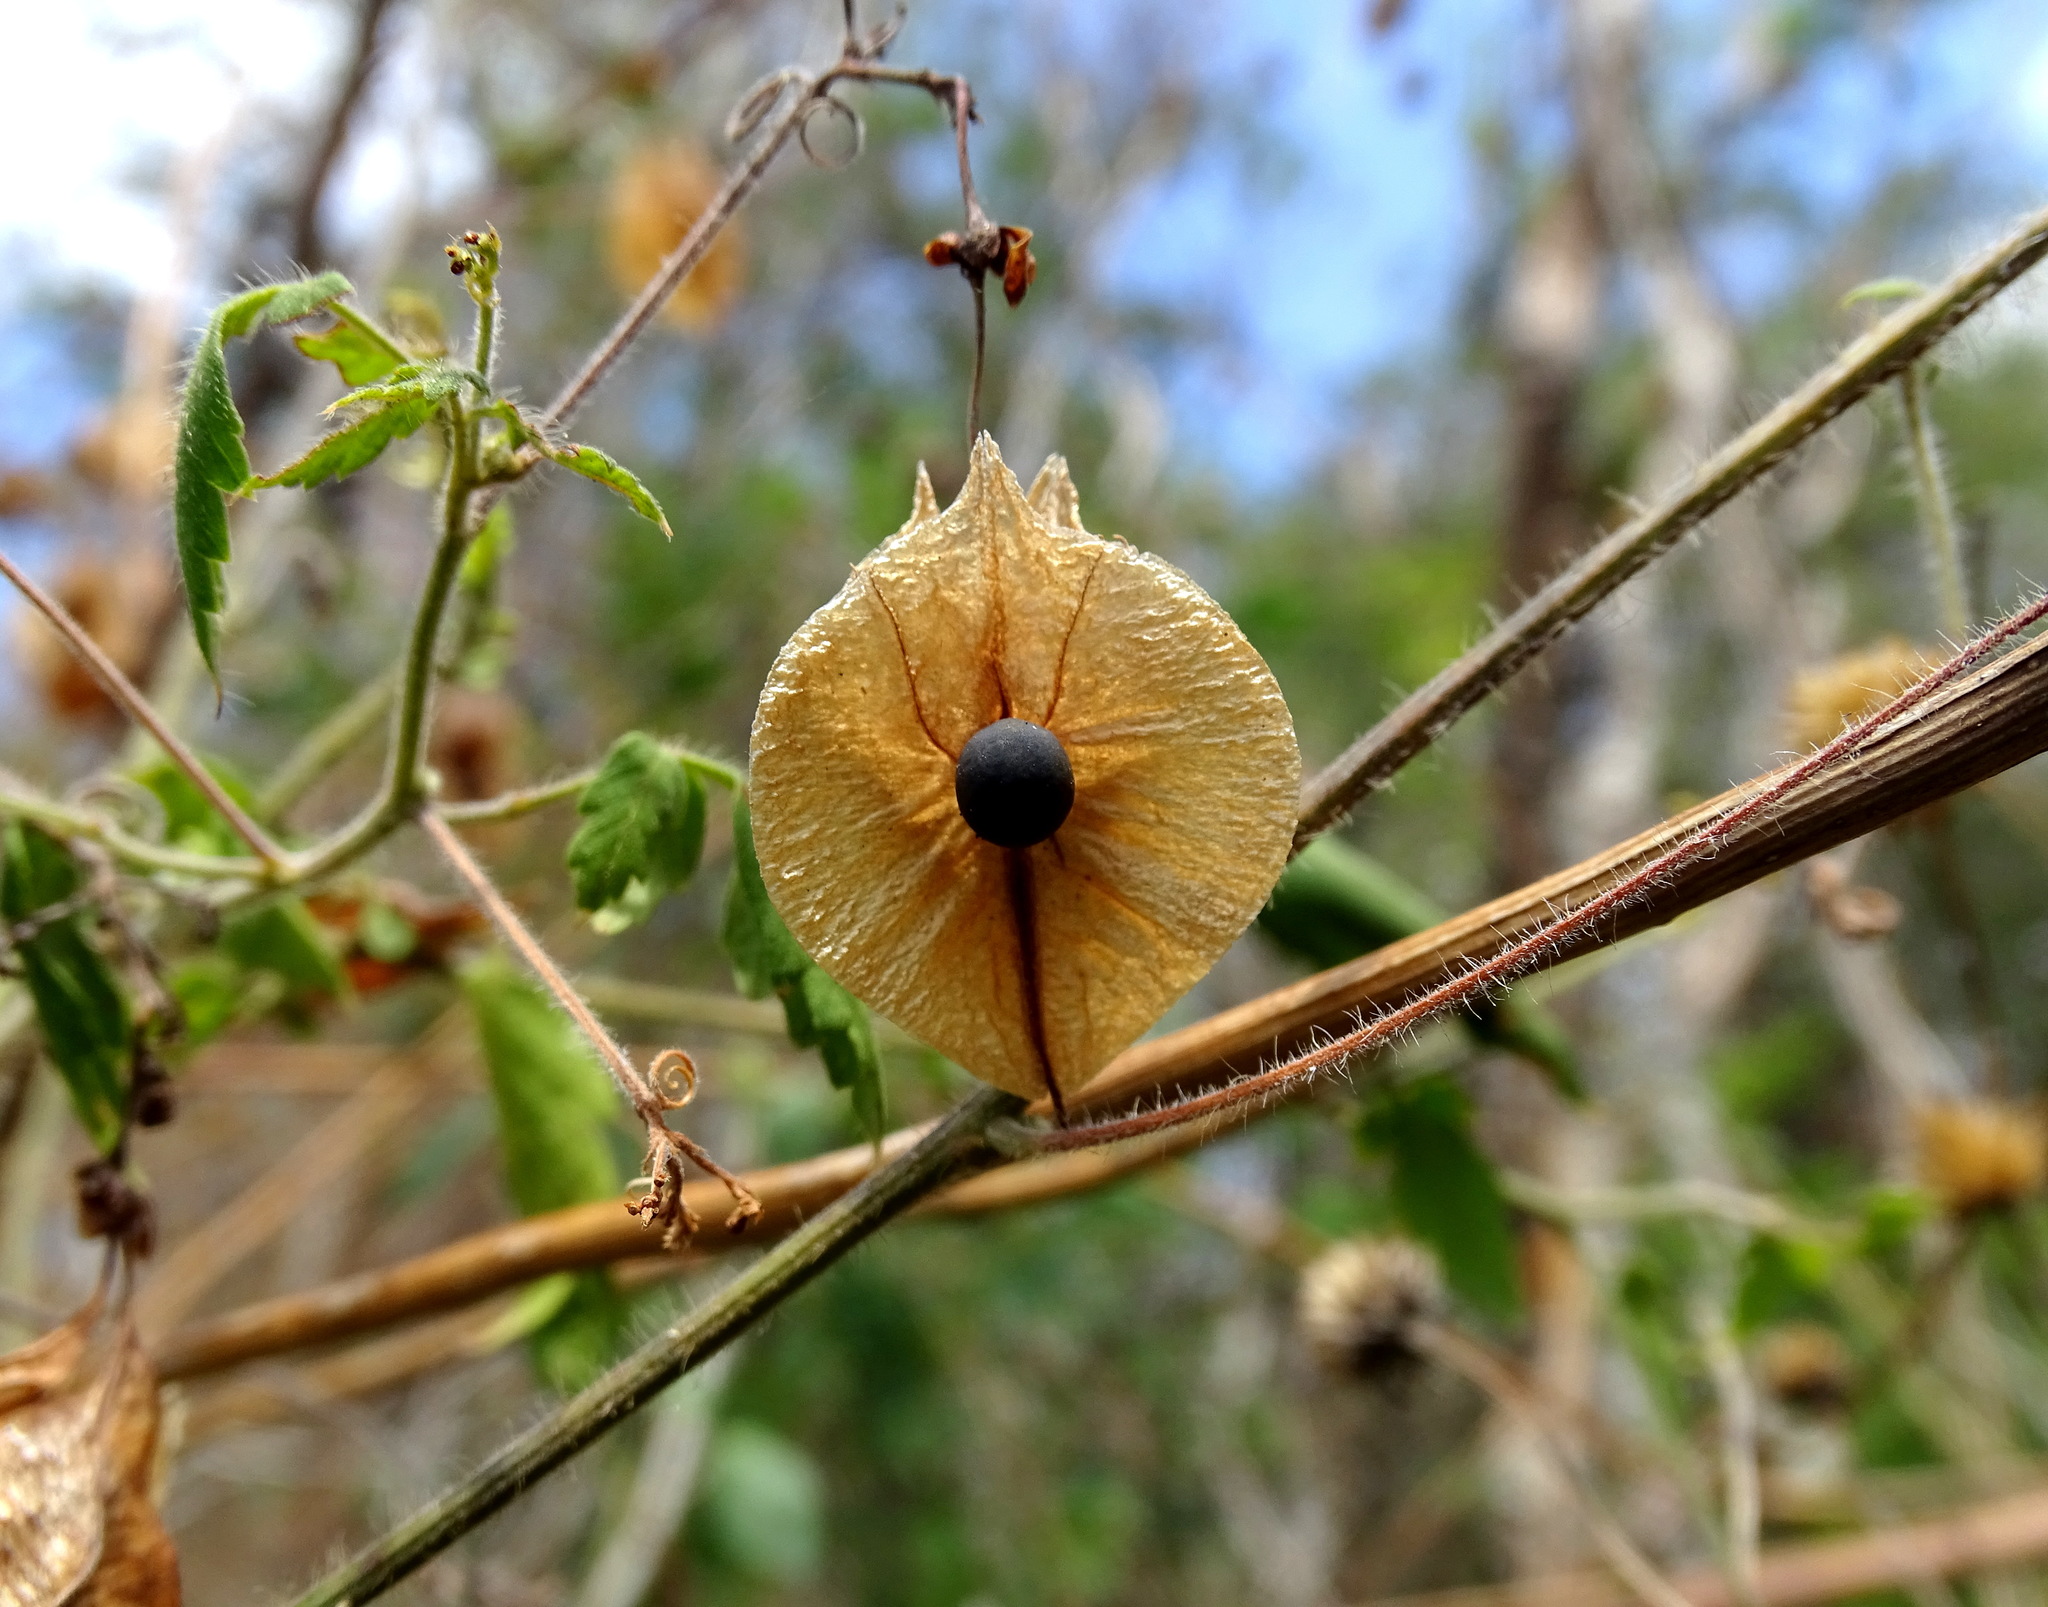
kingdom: Plantae
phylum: Tracheophyta
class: Magnoliopsida
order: Sapindales
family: Sapindaceae
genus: Cardiospermum
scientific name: Cardiospermum corindum
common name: Faux persil
